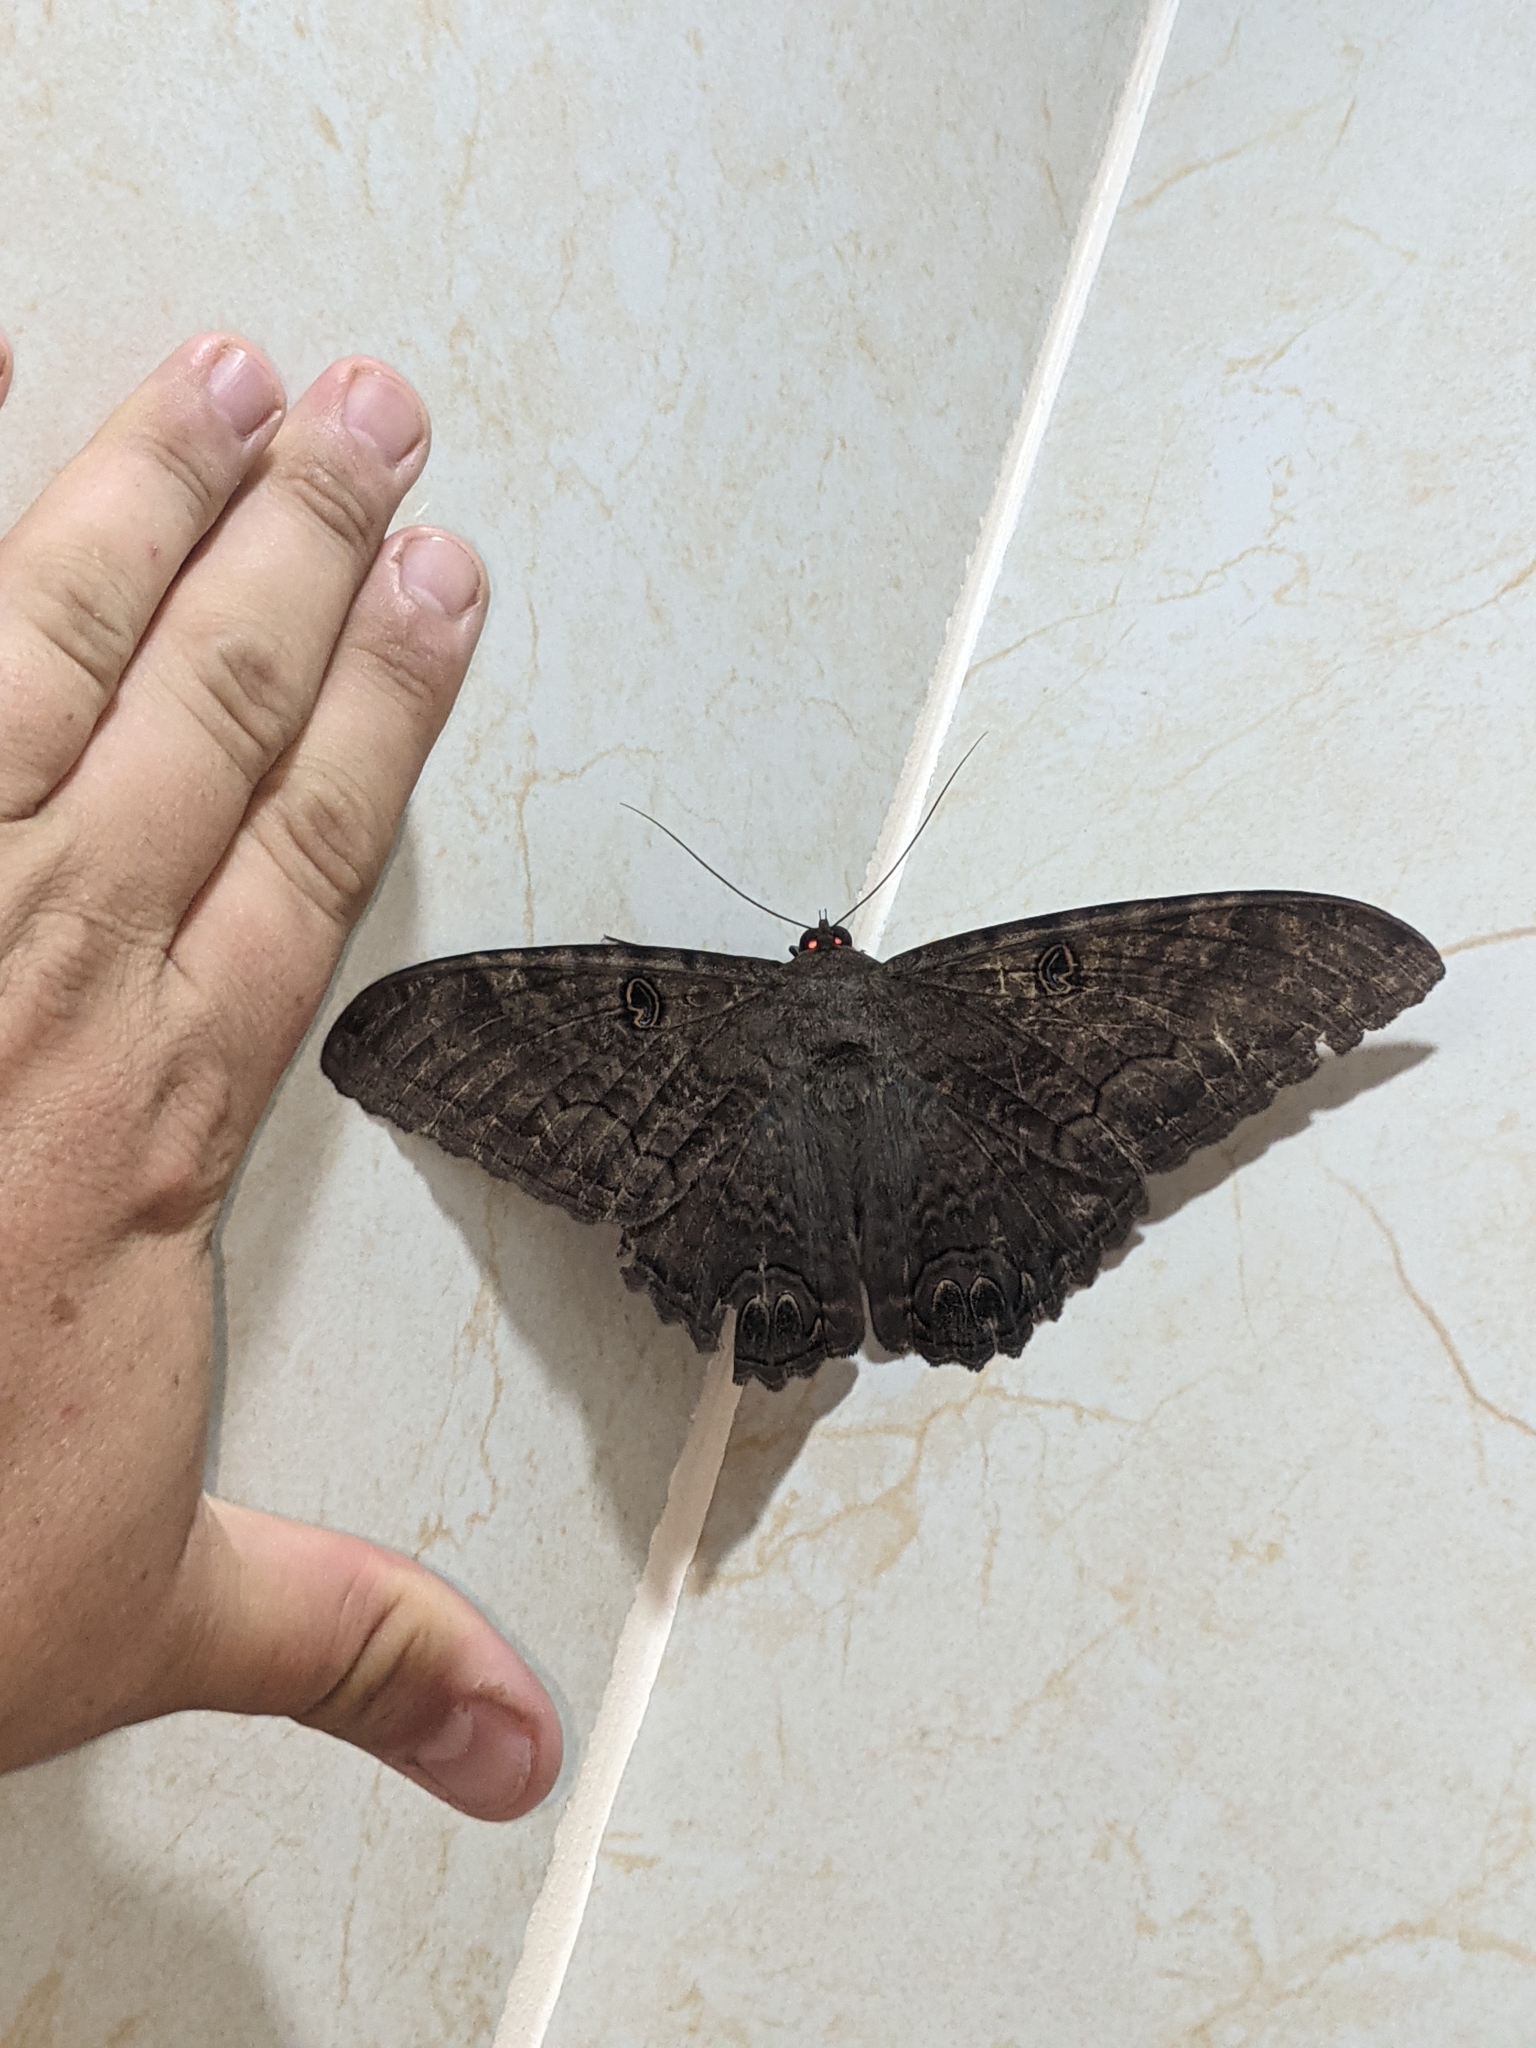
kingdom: Animalia
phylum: Arthropoda
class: Insecta
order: Lepidoptera
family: Erebidae
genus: Ascalapha
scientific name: Ascalapha odorata
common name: Black witch
